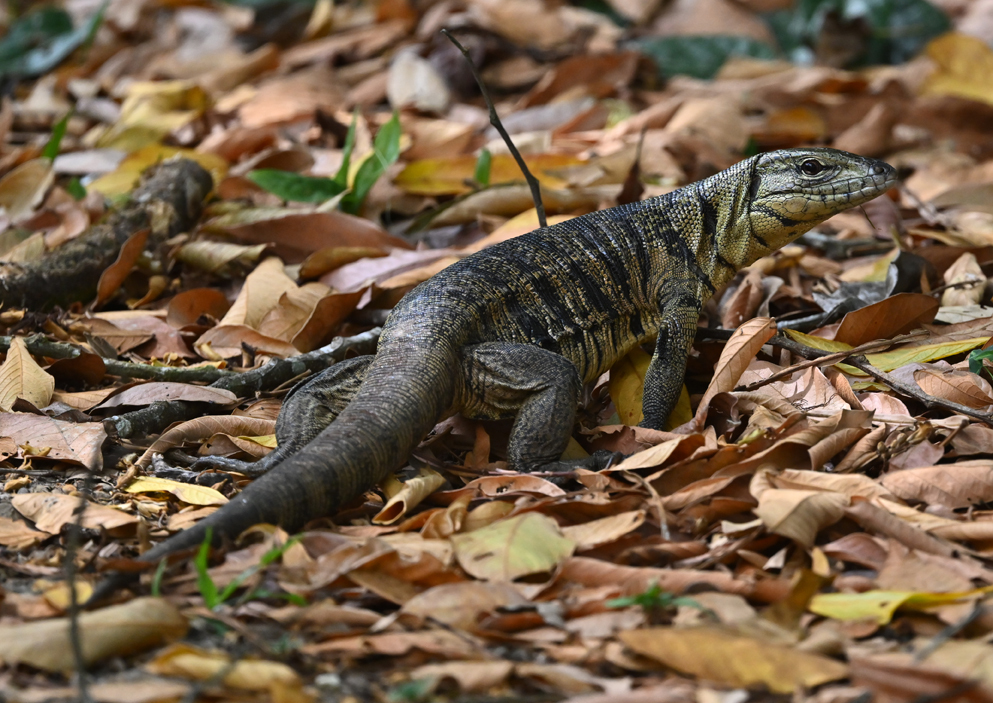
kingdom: Animalia
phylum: Chordata
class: Squamata
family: Teiidae
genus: Tupinambis
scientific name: Tupinambis cryptus
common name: Cryptic golden tegu
